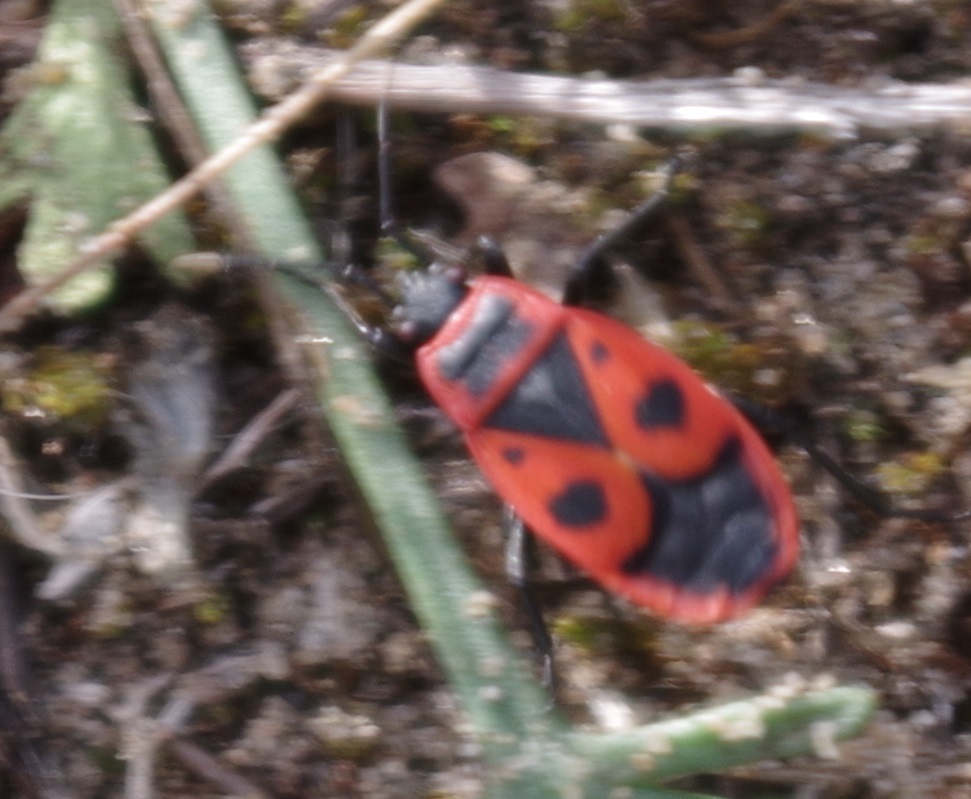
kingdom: Animalia
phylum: Arthropoda
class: Insecta
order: Hemiptera
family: Pyrrhocoridae
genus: Pyrrhocoris
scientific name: Pyrrhocoris apterus
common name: Firebug
